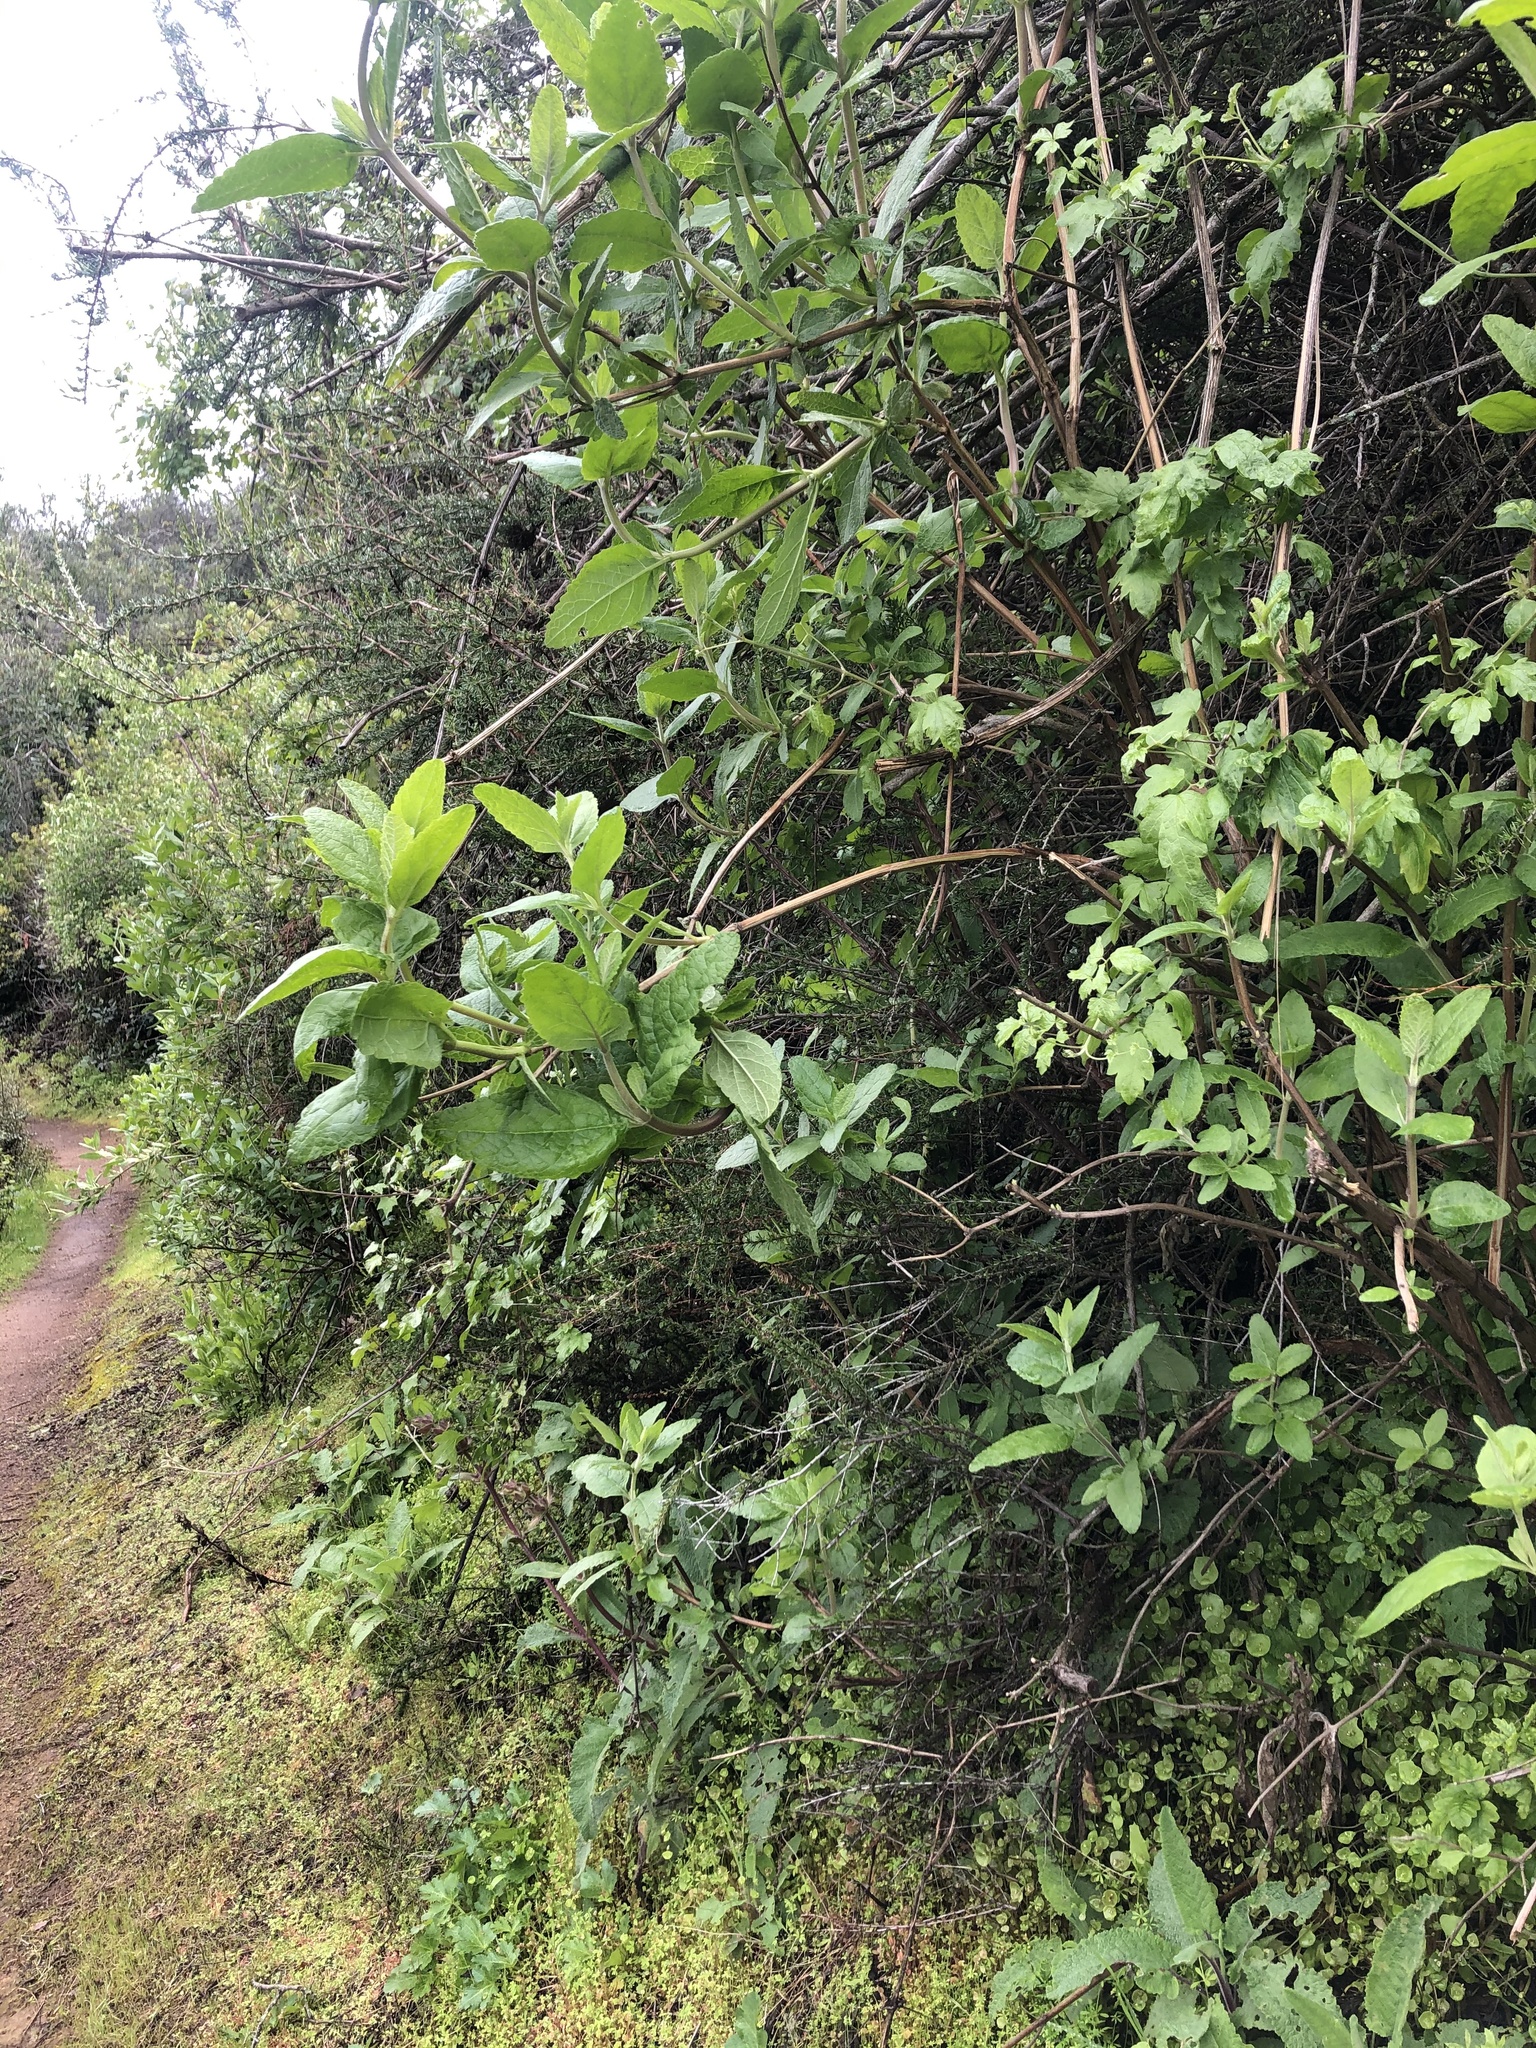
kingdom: Plantae
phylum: Tracheophyta
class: Magnoliopsida
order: Lamiales
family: Lamiaceae
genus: Lepechinia
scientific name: Lepechinia calycina
